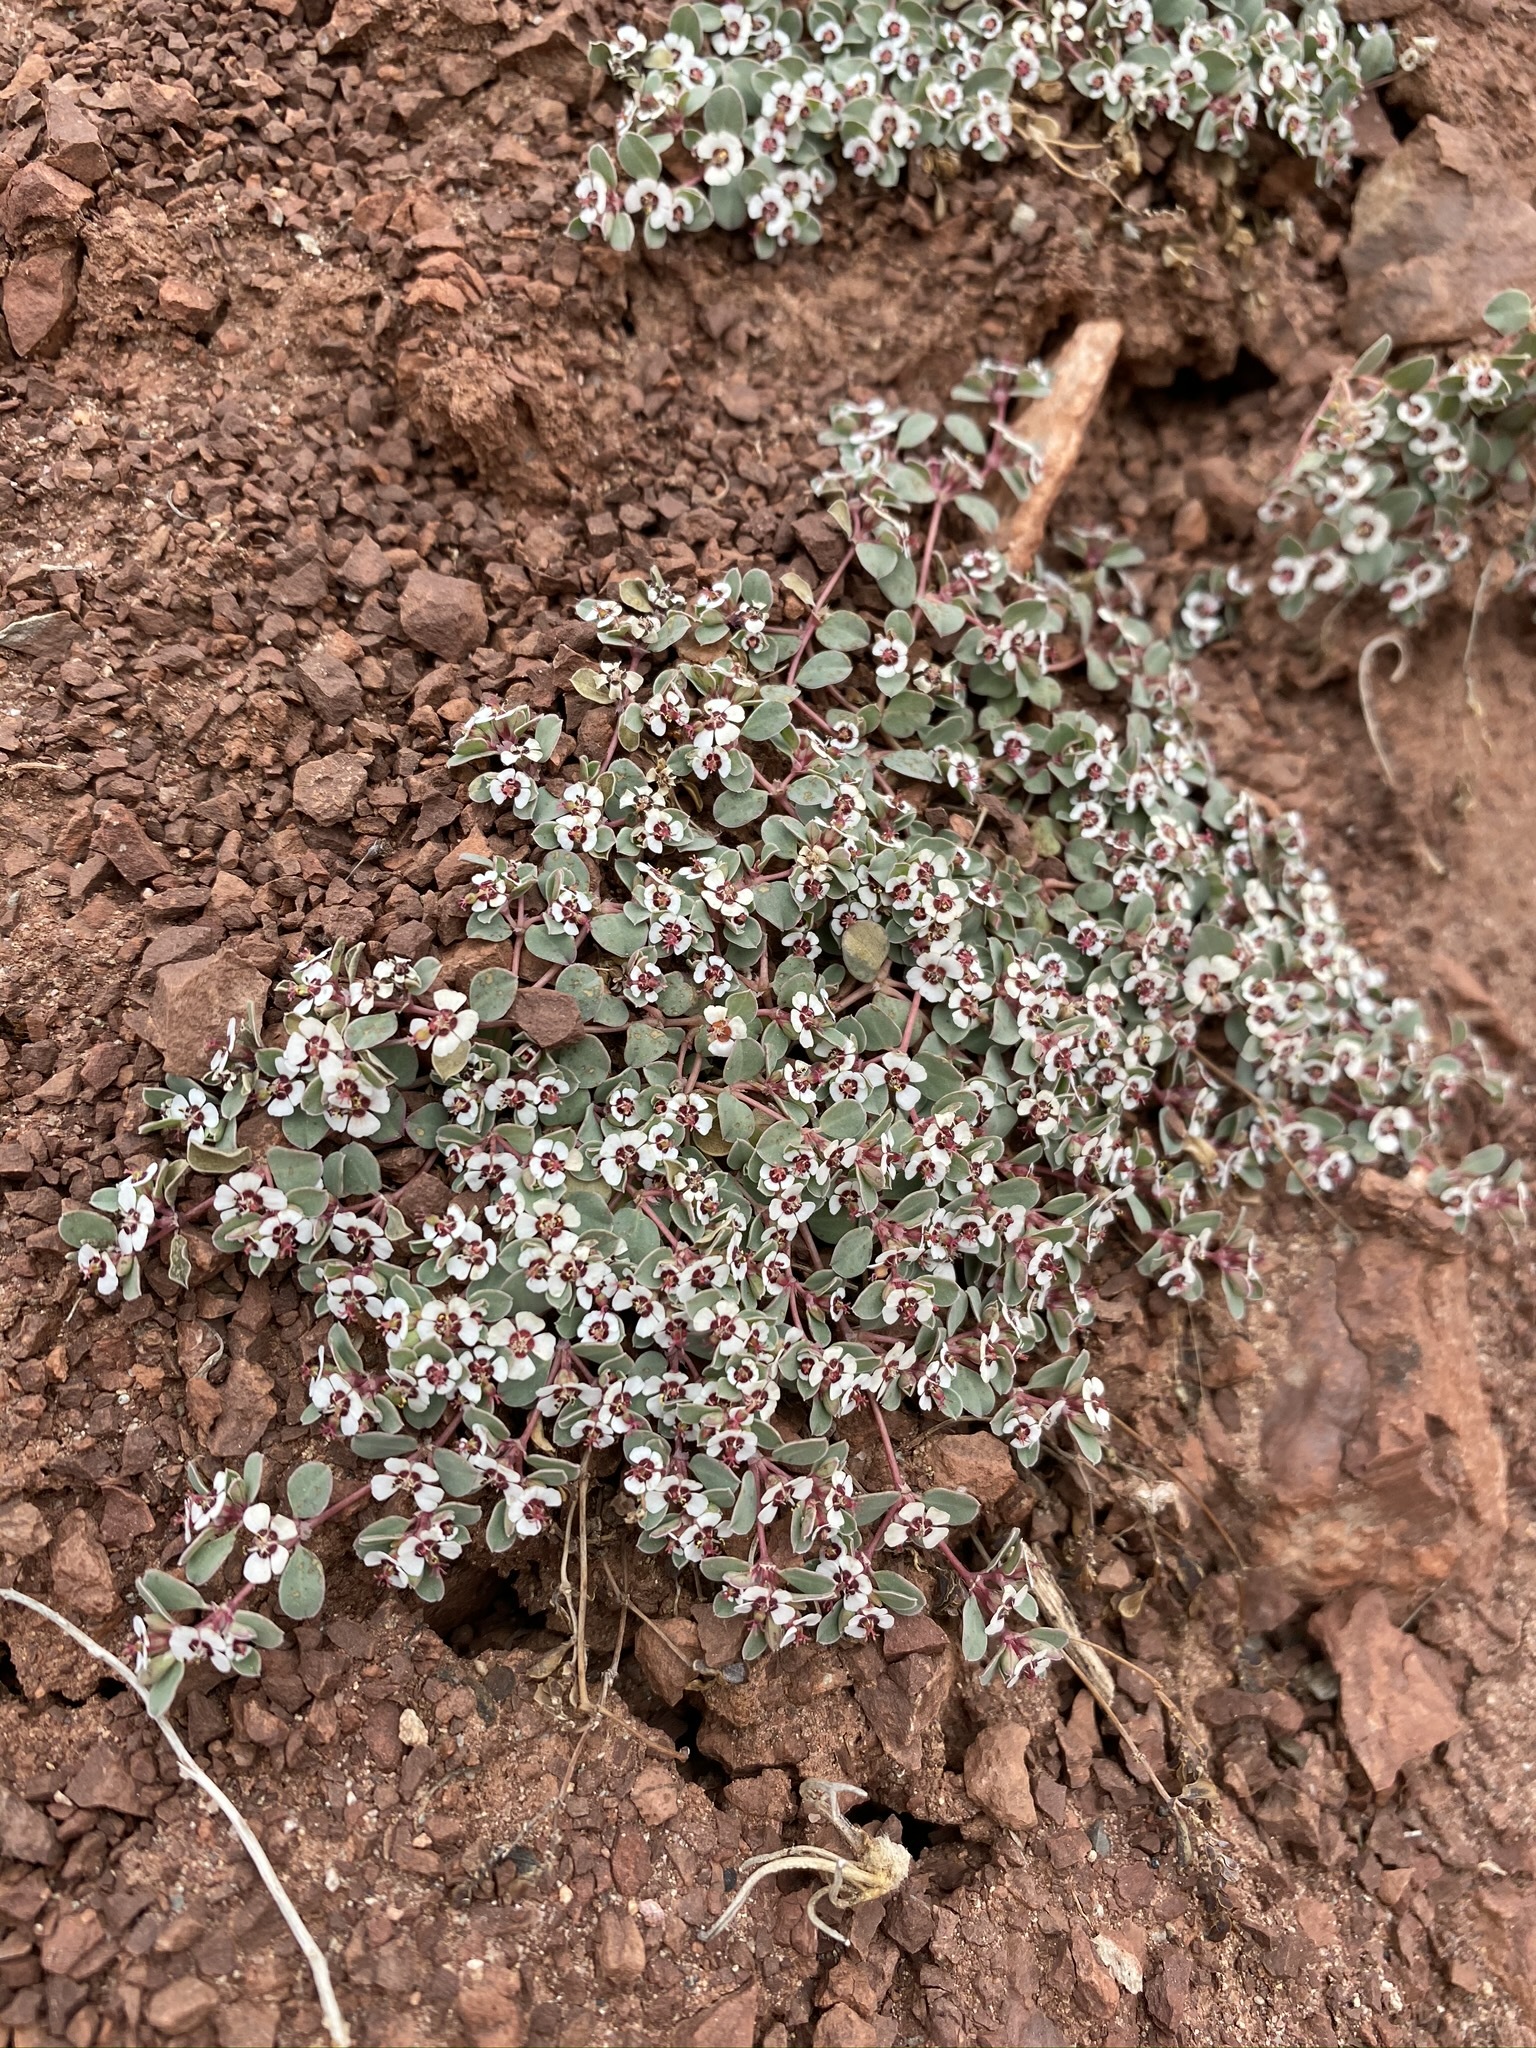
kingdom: Plantae
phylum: Tracheophyta
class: Magnoliopsida
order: Malpighiales
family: Euphorbiaceae
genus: Euphorbia
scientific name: Euphorbia albomarginata
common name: Whitemargin sandmat
